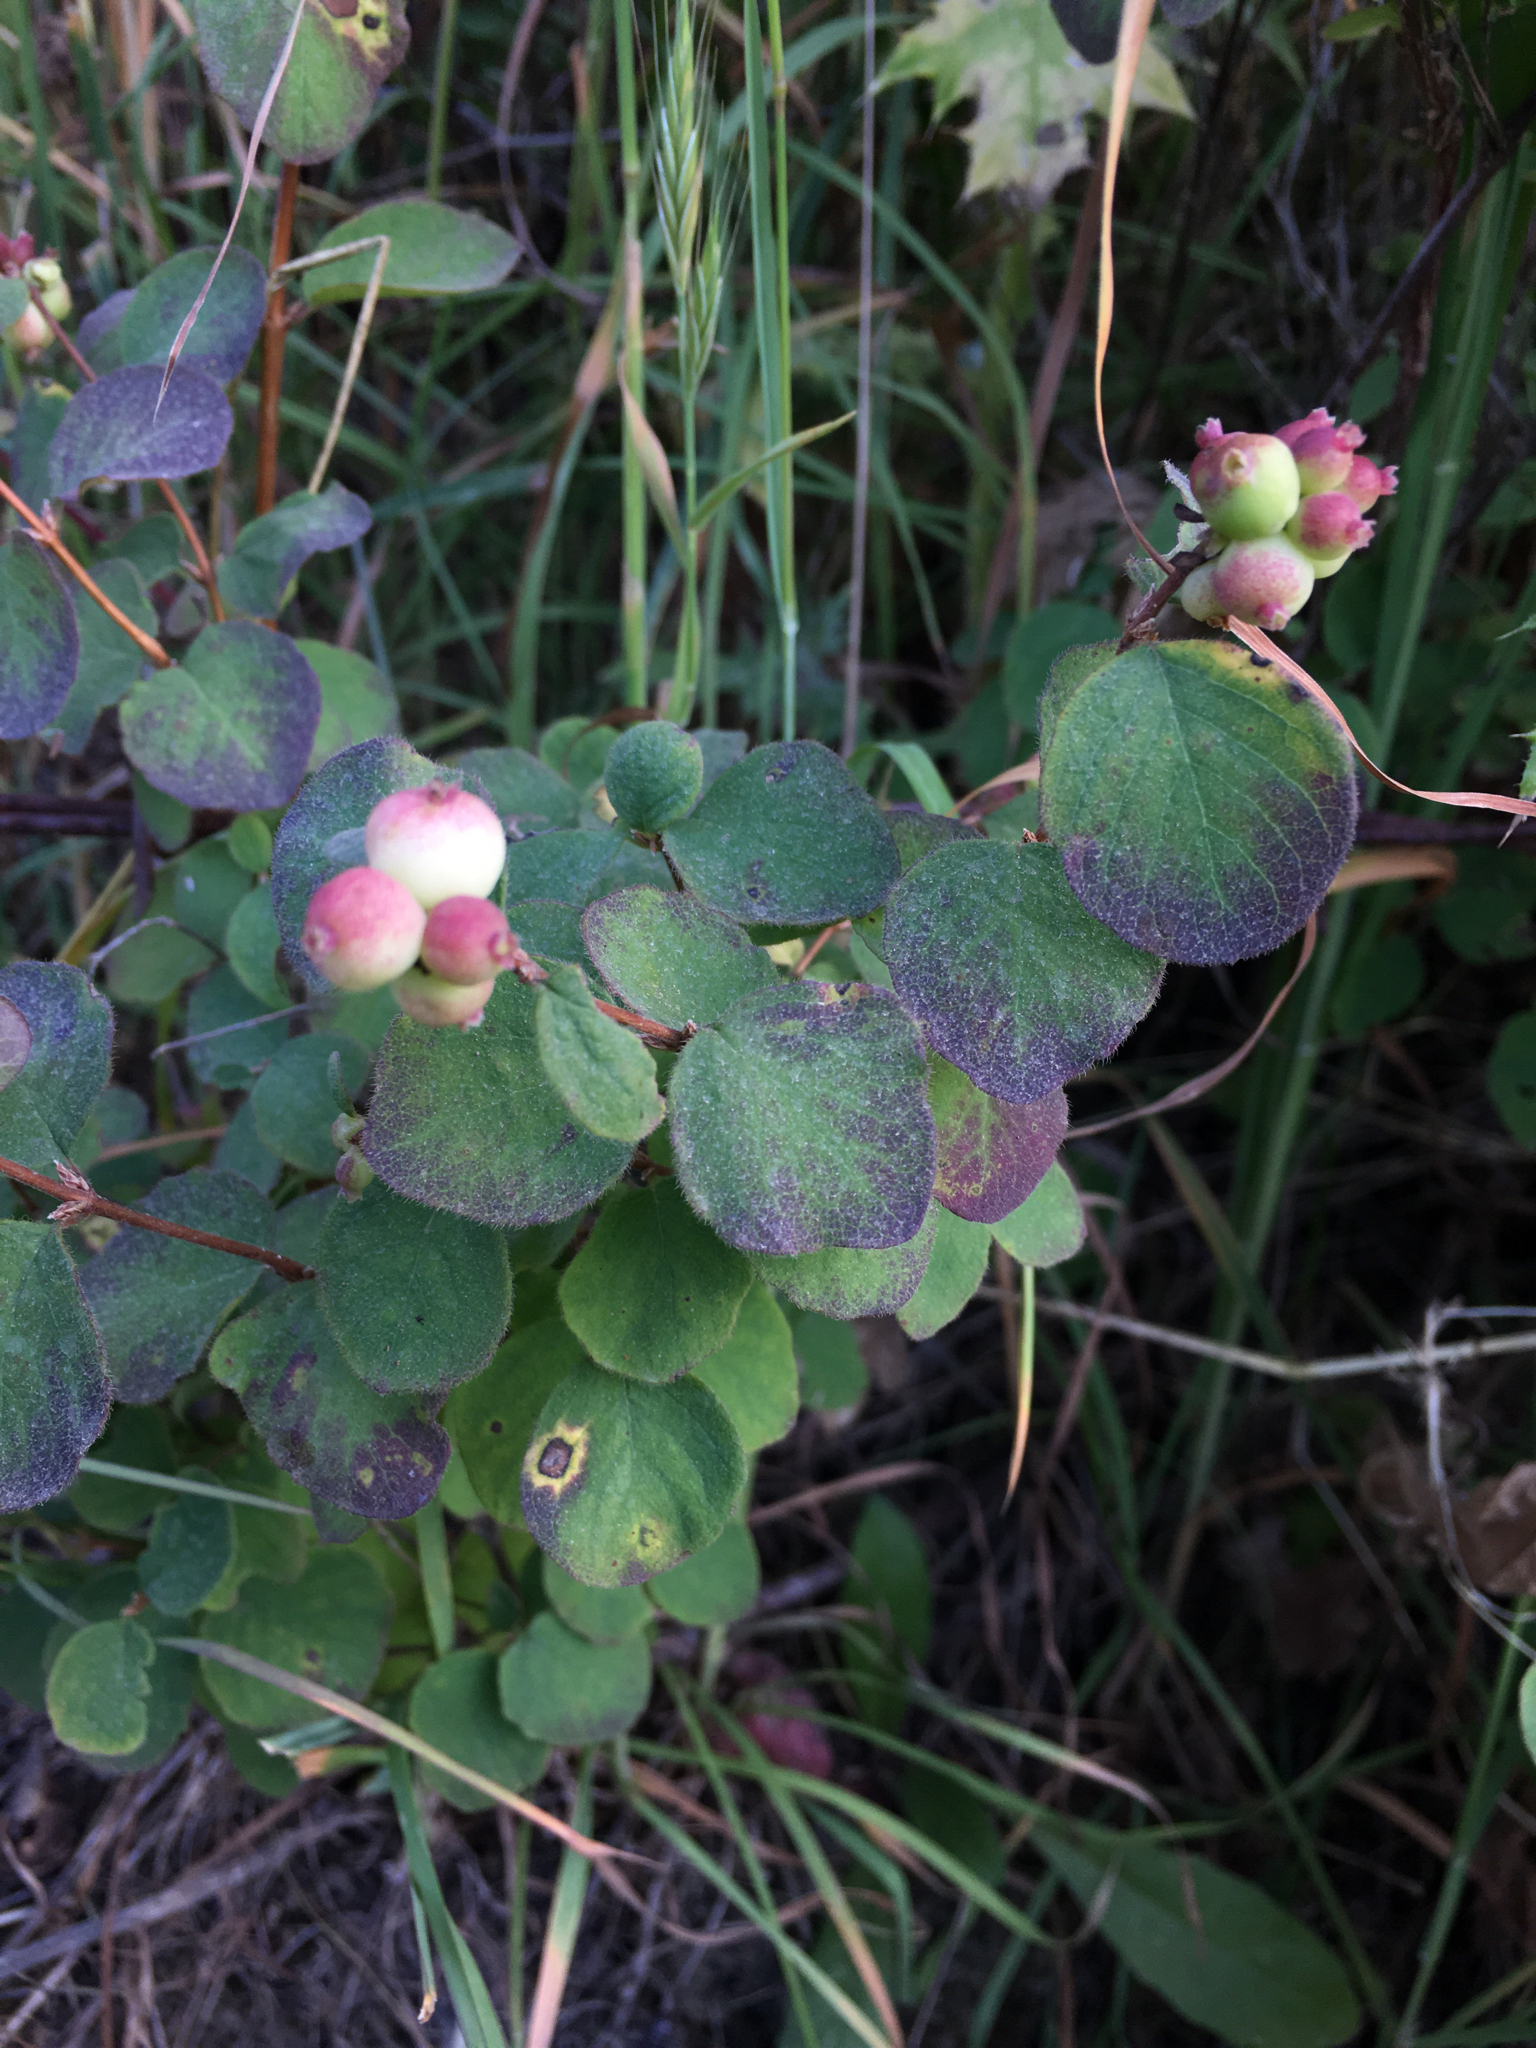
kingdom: Plantae
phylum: Tracheophyta
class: Magnoliopsida
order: Dipsacales
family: Caprifoliaceae
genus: Symphoricarpos
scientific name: Symphoricarpos mollis
